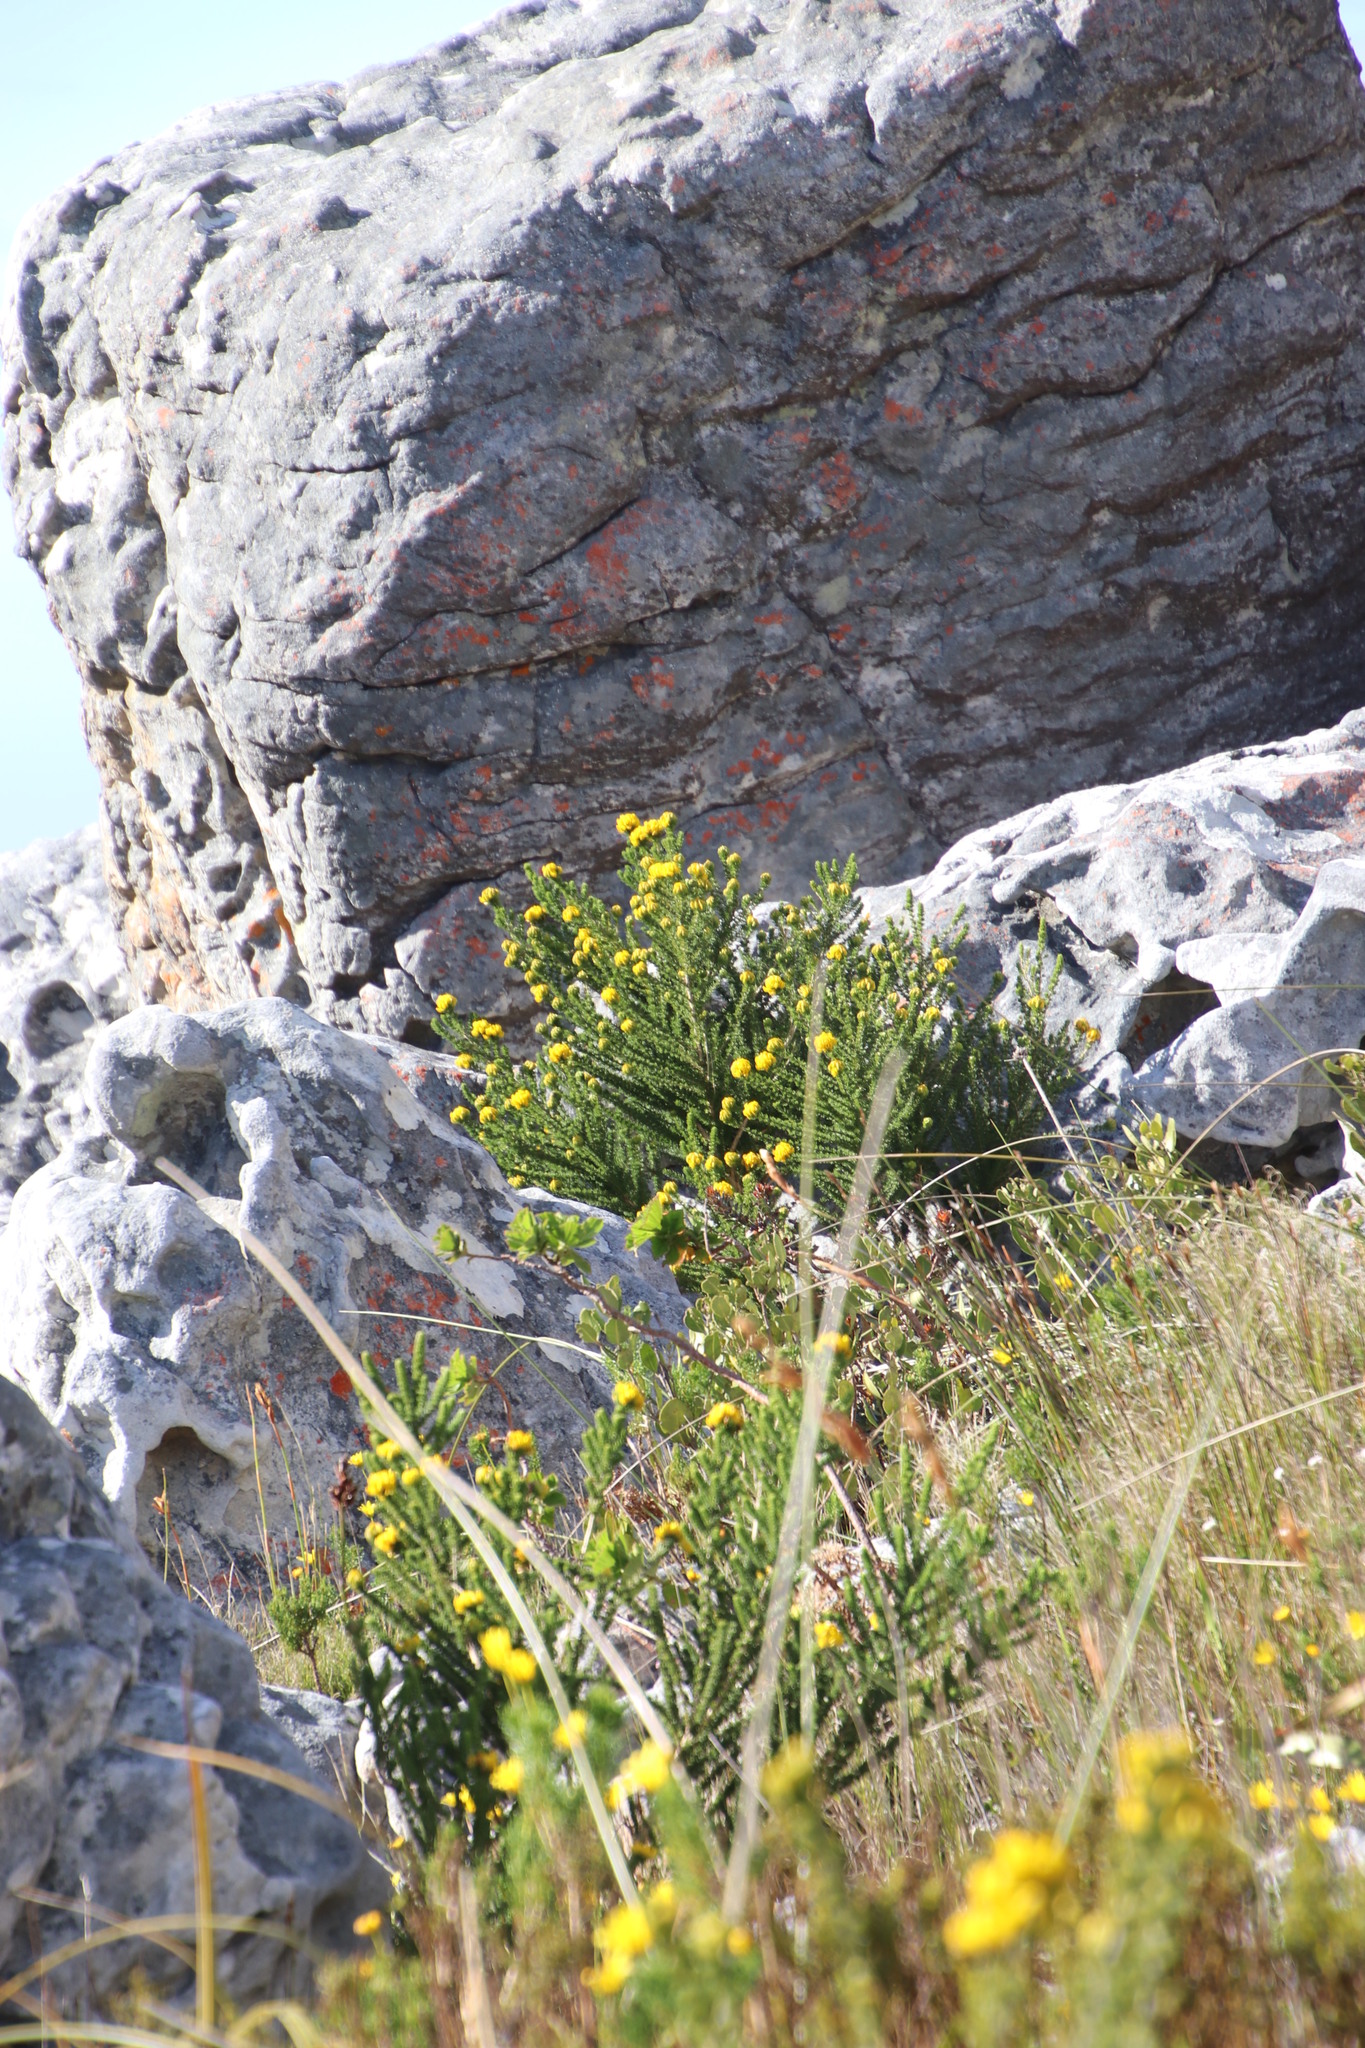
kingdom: Plantae
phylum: Tracheophyta
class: Magnoliopsida
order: Fabales
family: Fabaceae
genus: Aspalathus
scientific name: Aspalathus carnosa
